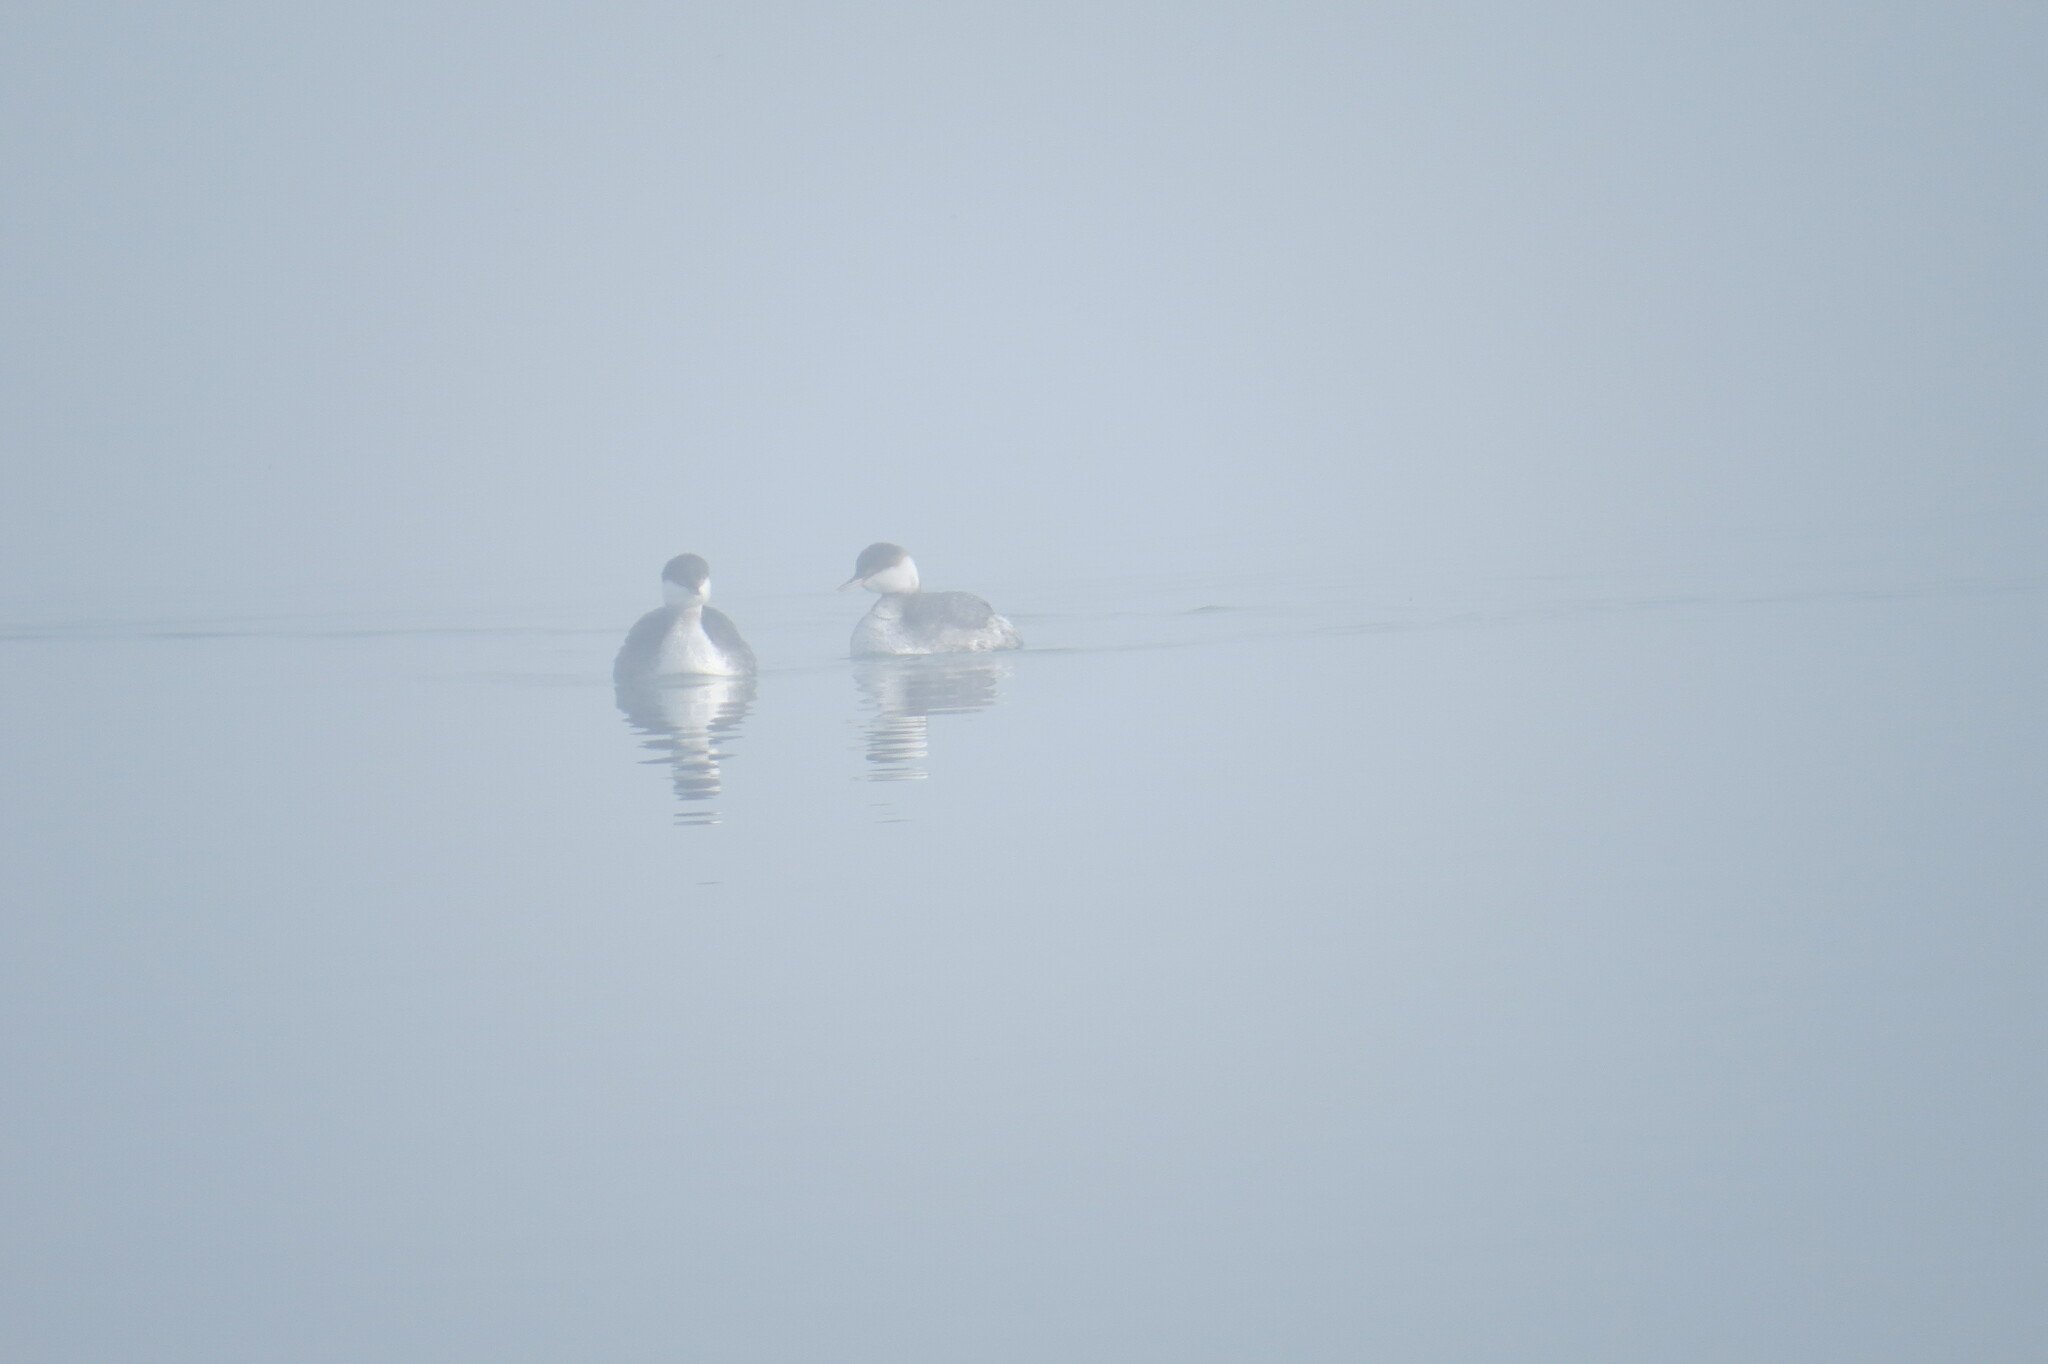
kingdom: Animalia
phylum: Chordata
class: Aves
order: Podicipediformes
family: Podicipedidae
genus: Podiceps
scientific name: Podiceps auritus
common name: Horned grebe
